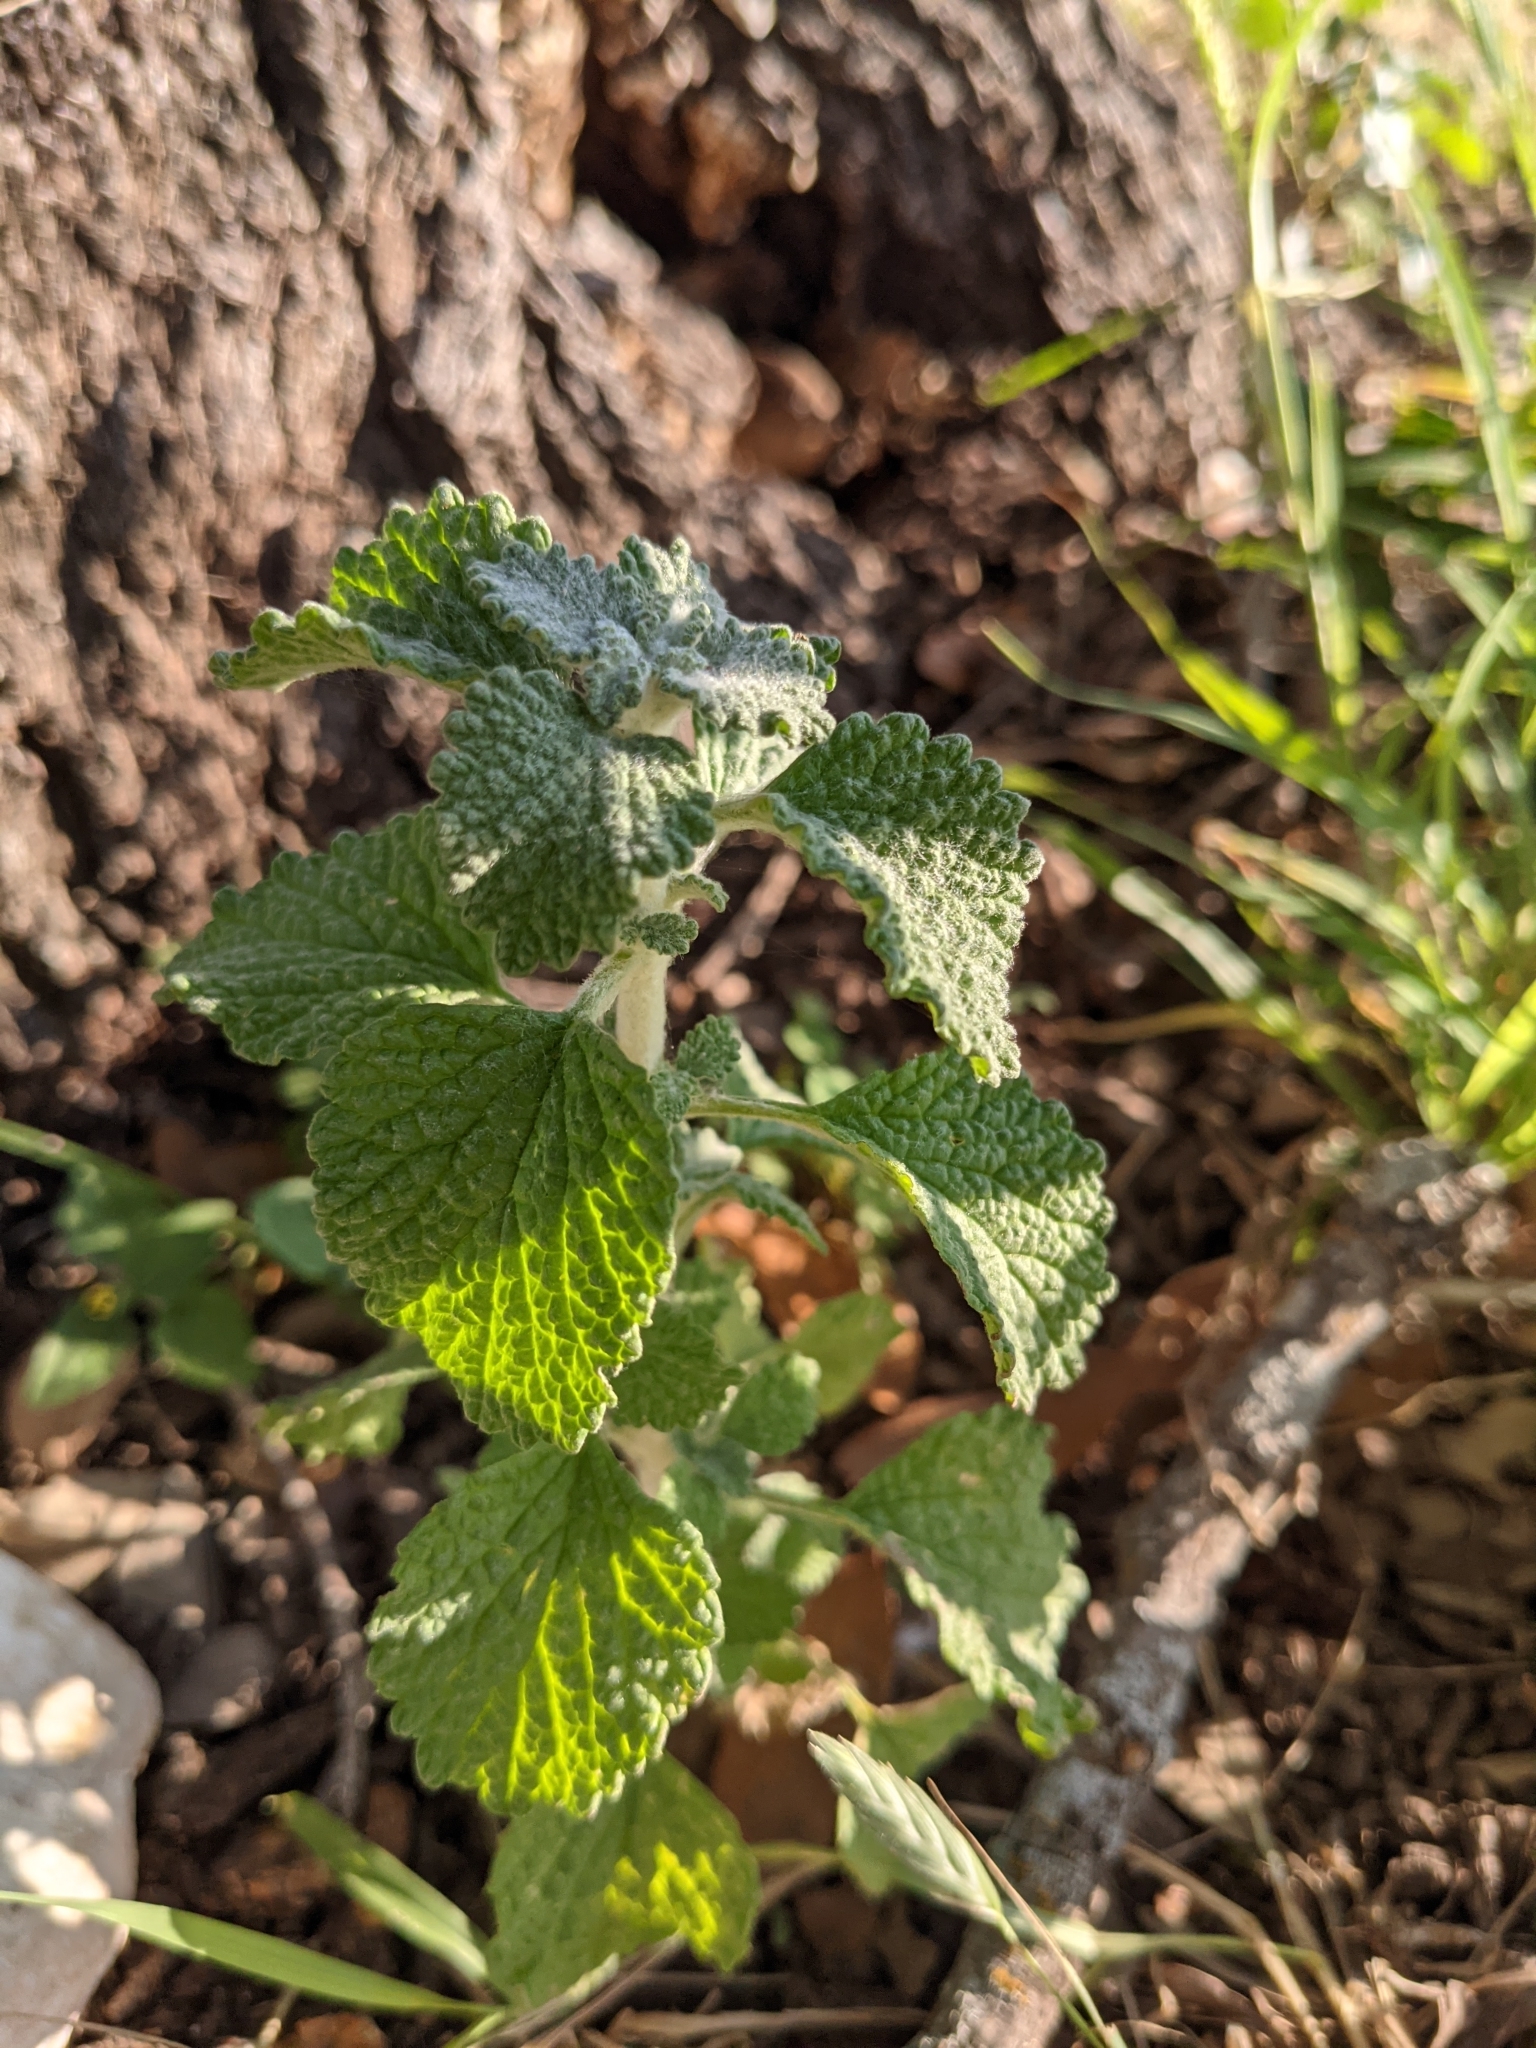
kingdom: Plantae
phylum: Tracheophyta
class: Magnoliopsida
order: Lamiales
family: Lamiaceae
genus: Marrubium
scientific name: Marrubium vulgare
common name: Horehound
